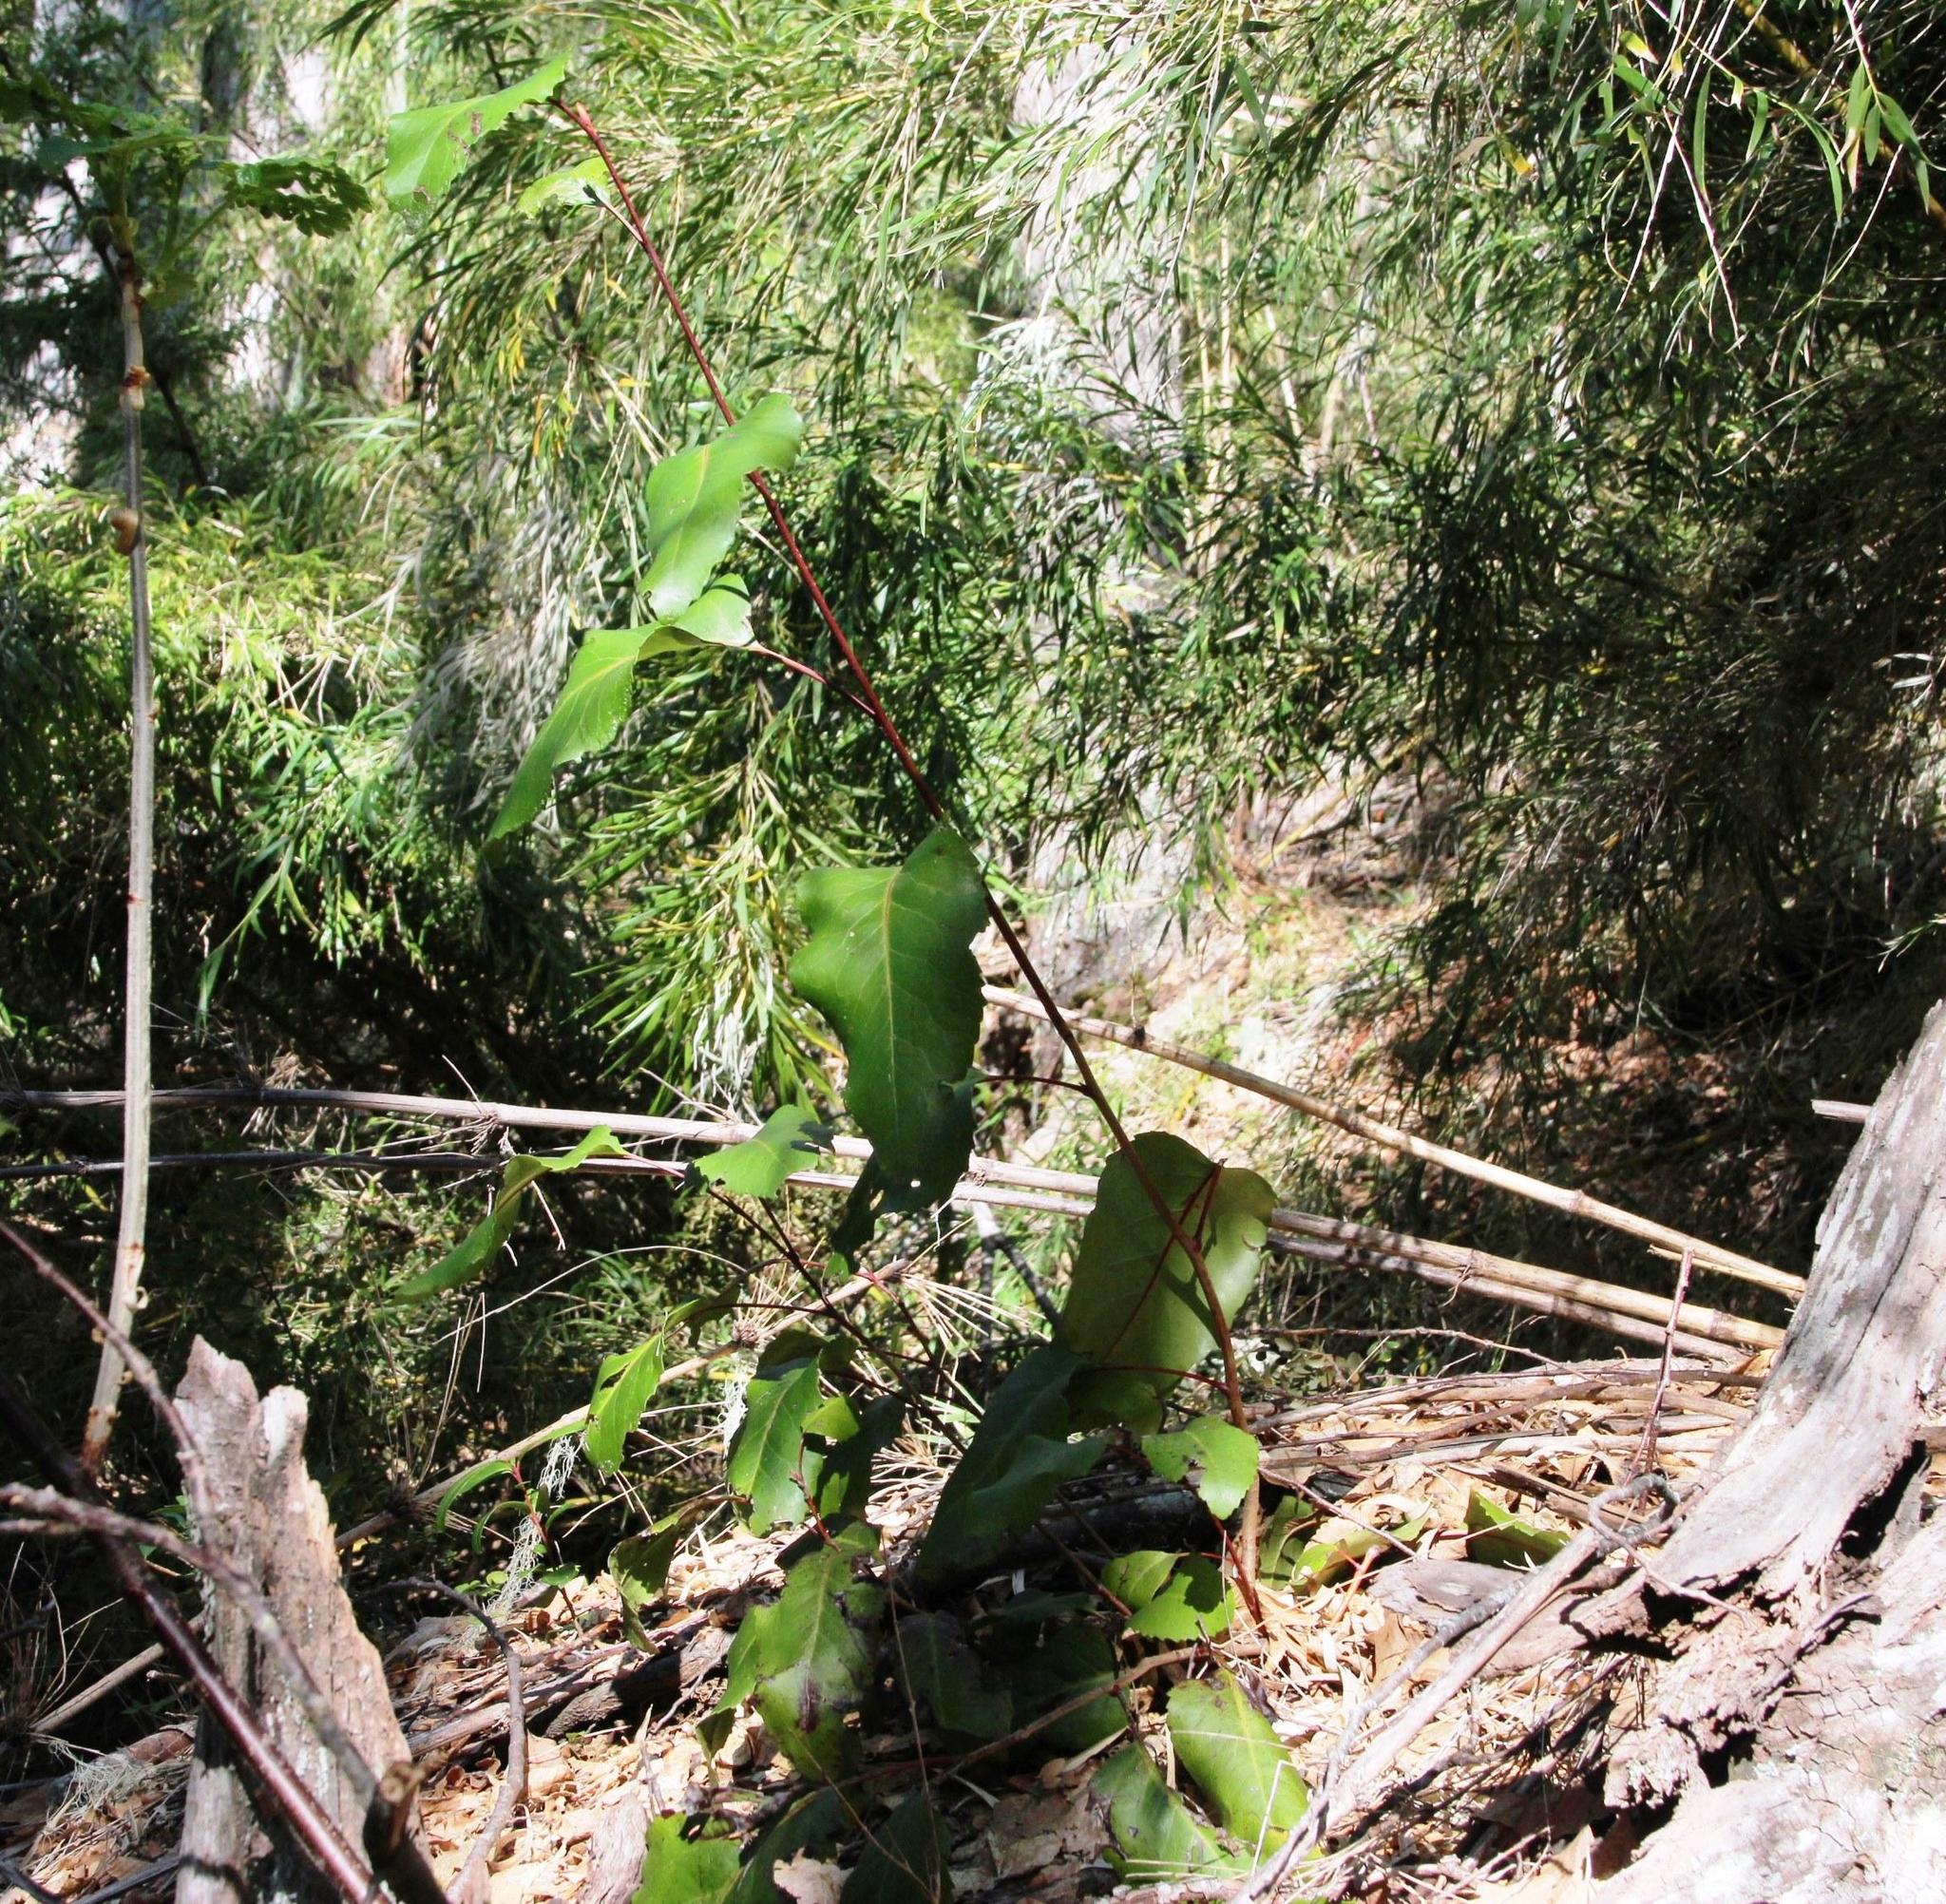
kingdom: Plantae
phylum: Tracheophyta
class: Magnoliopsida
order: Proteales
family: Proteaceae
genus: Lomatia
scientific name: Lomatia hirsuta
